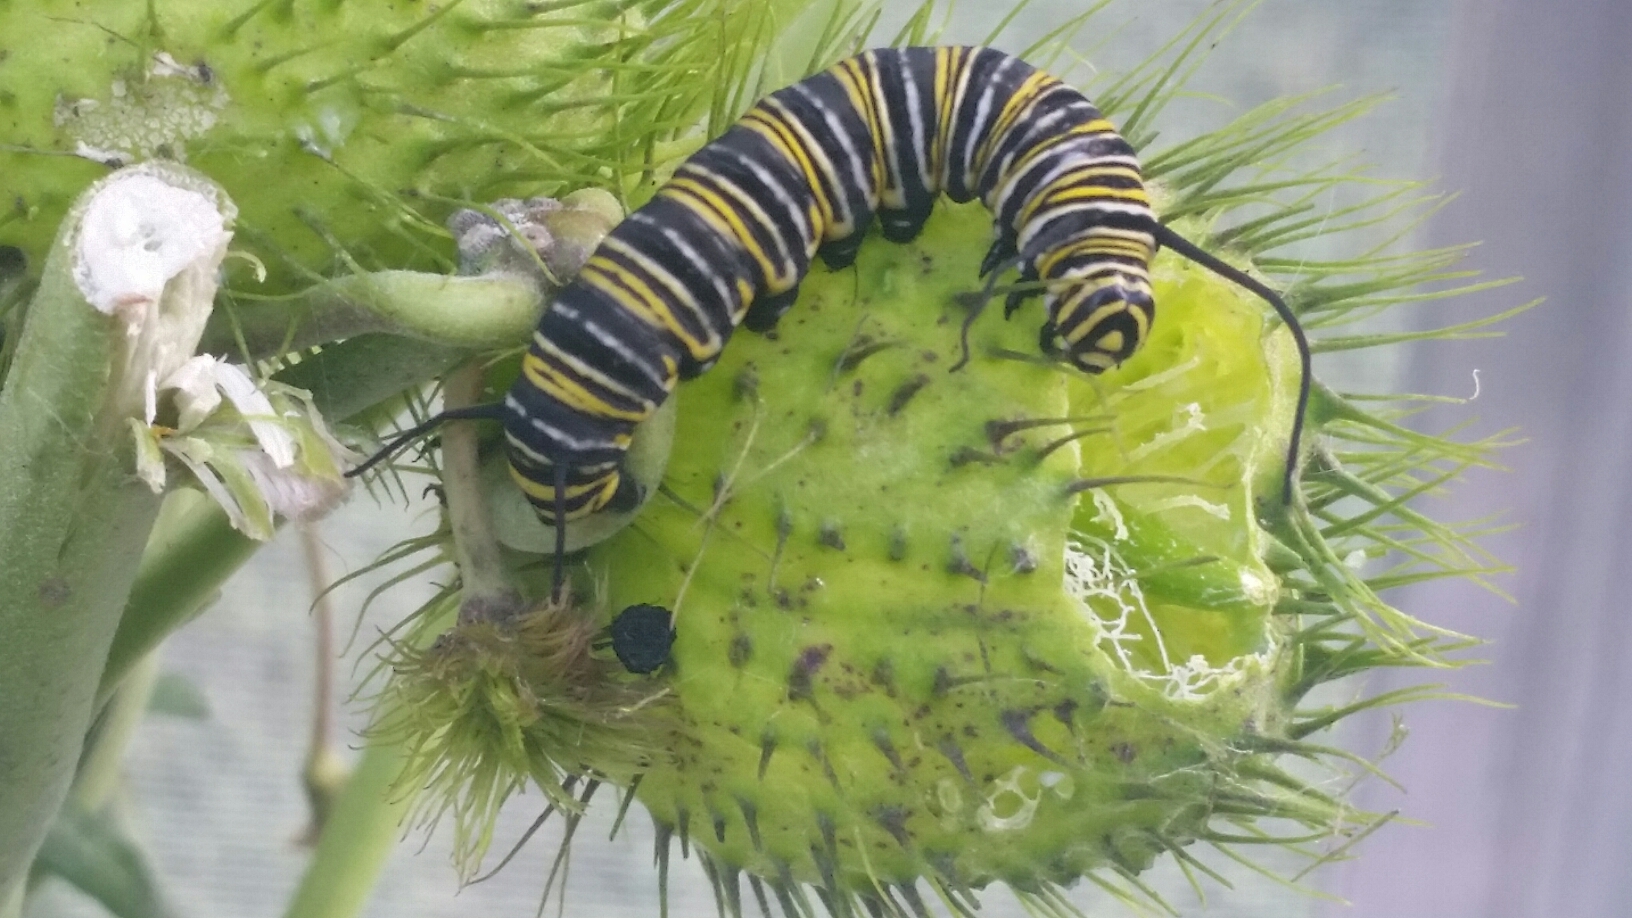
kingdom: Animalia
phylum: Arthropoda
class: Insecta
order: Lepidoptera
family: Nymphalidae
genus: Danaus
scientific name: Danaus plexippus
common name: Monarch
